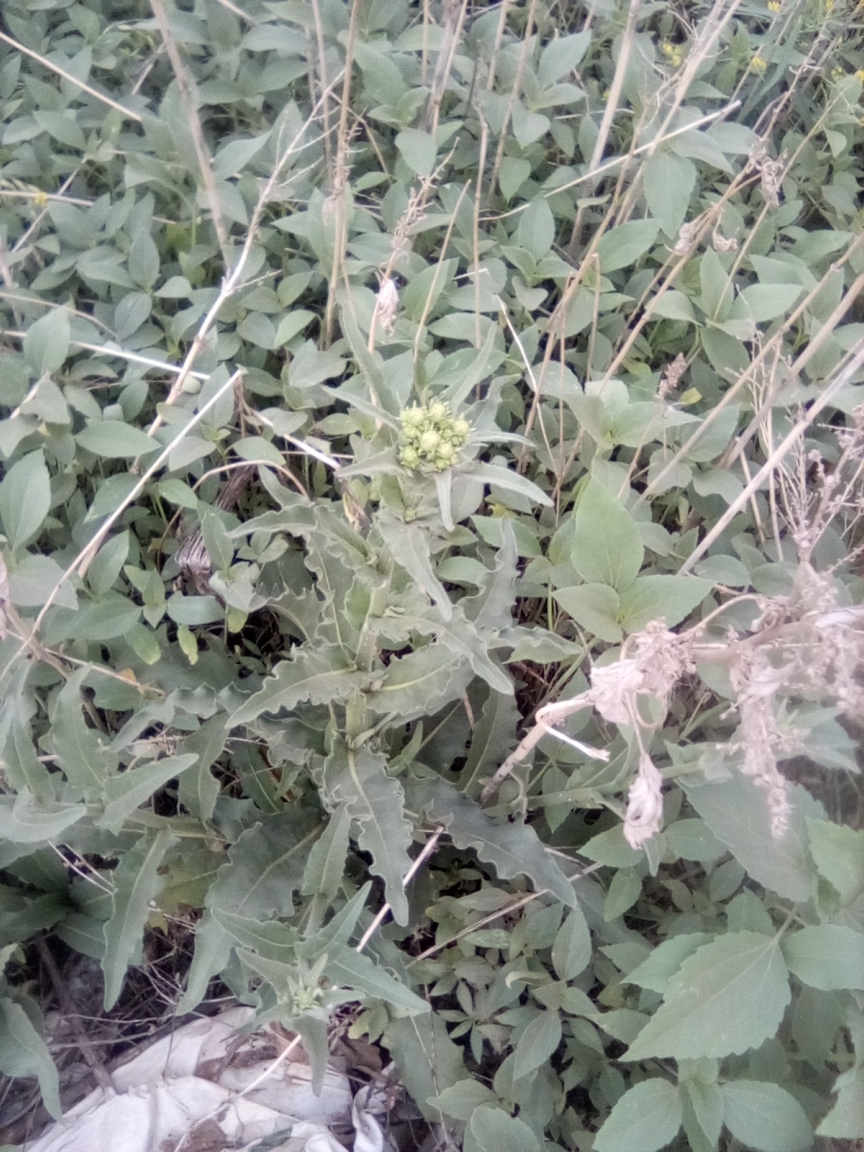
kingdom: Plantae
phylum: Tracheophyta
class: Magnoliopsida
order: Asterales
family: Asteraceae
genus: Picris
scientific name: Picris hieracioides
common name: Hawkweed oxtongue
